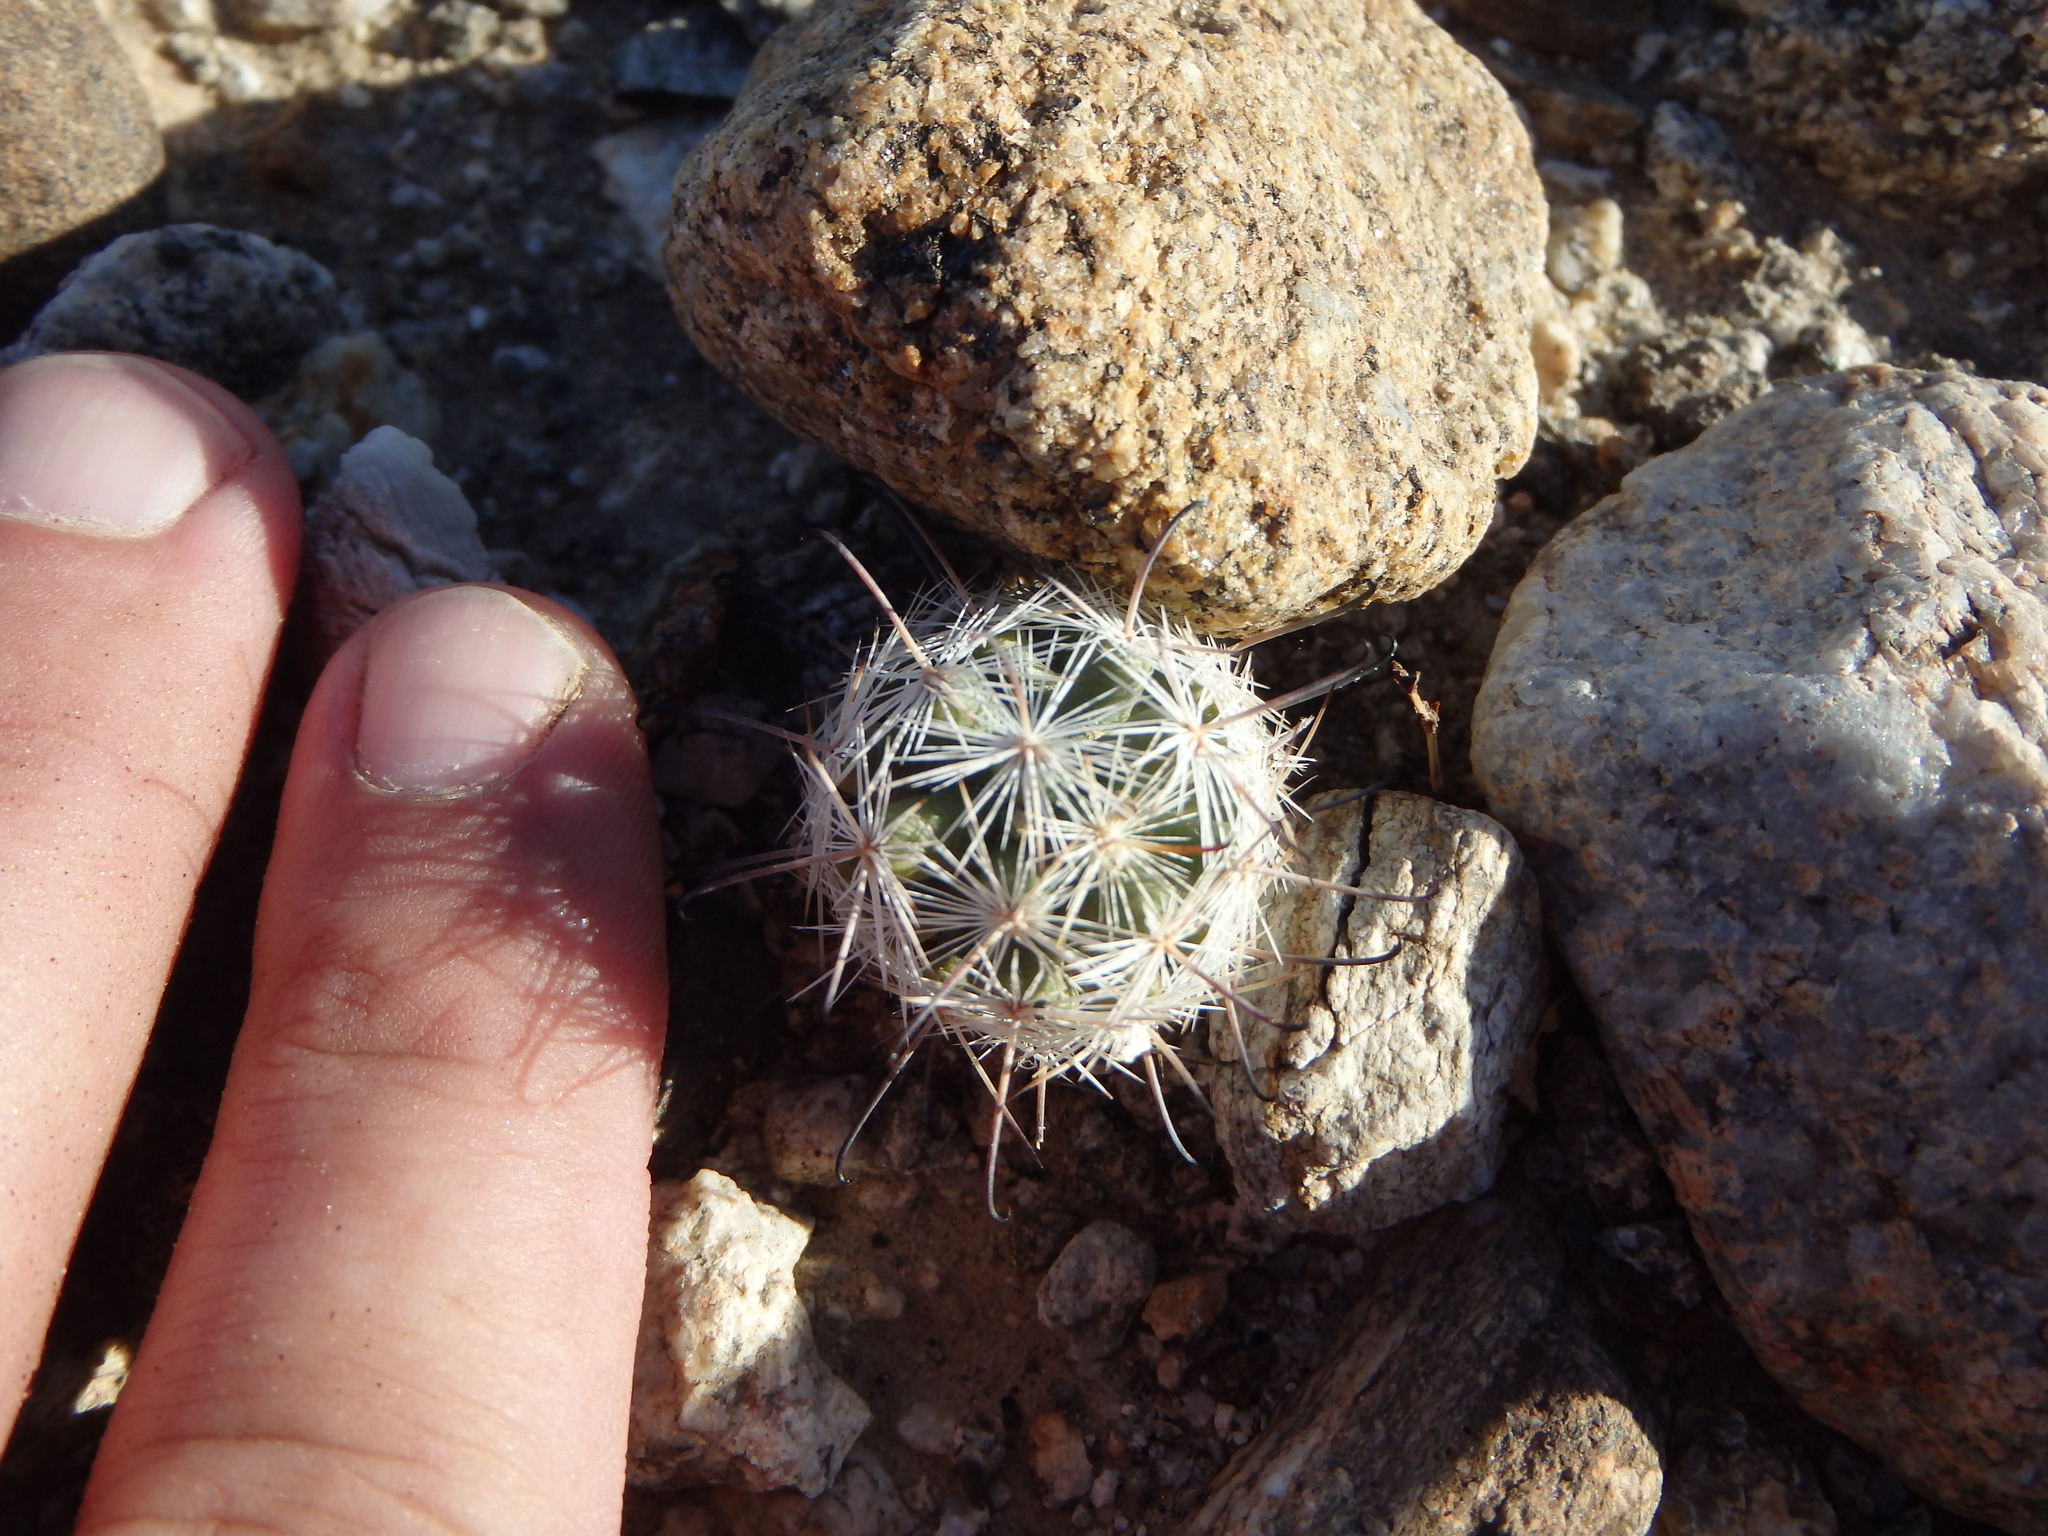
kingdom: Plantae
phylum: Tracheophyta
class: Magnoliopsida
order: Caryophyllales
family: Cactaceae
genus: Cochemiea
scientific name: Cochemiea tetrancistra
